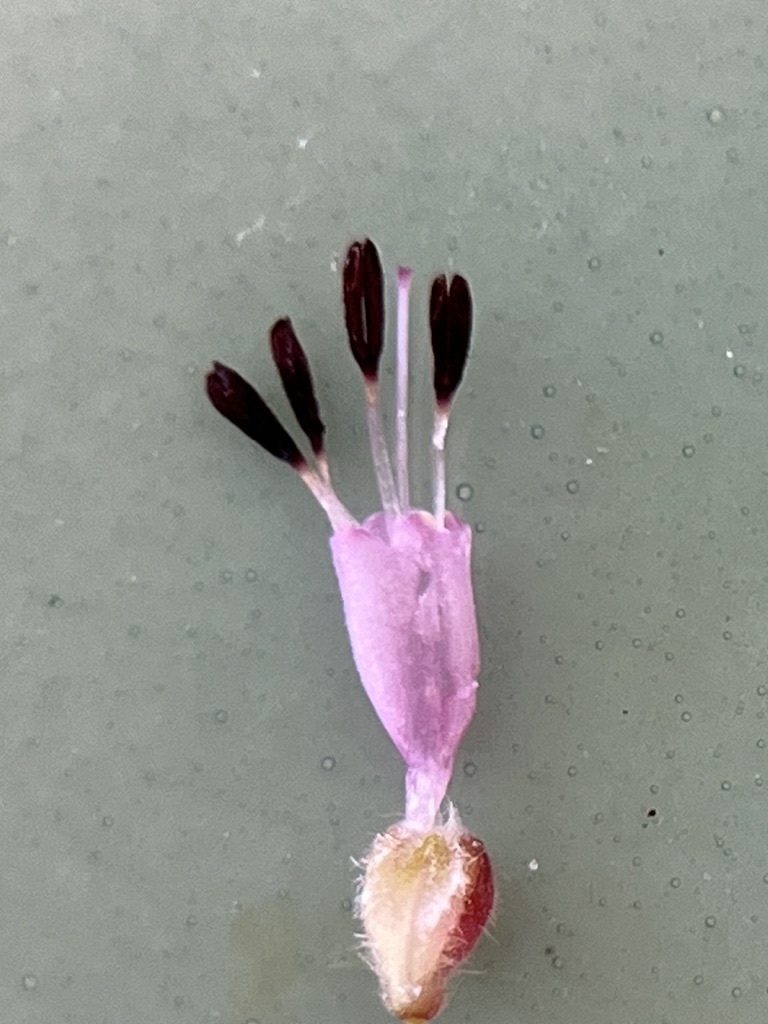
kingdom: Plantae
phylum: Tracheophyta
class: Magnoliopsida
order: Ericales
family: Ericaceae
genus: Erica
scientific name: Erica globiceps
